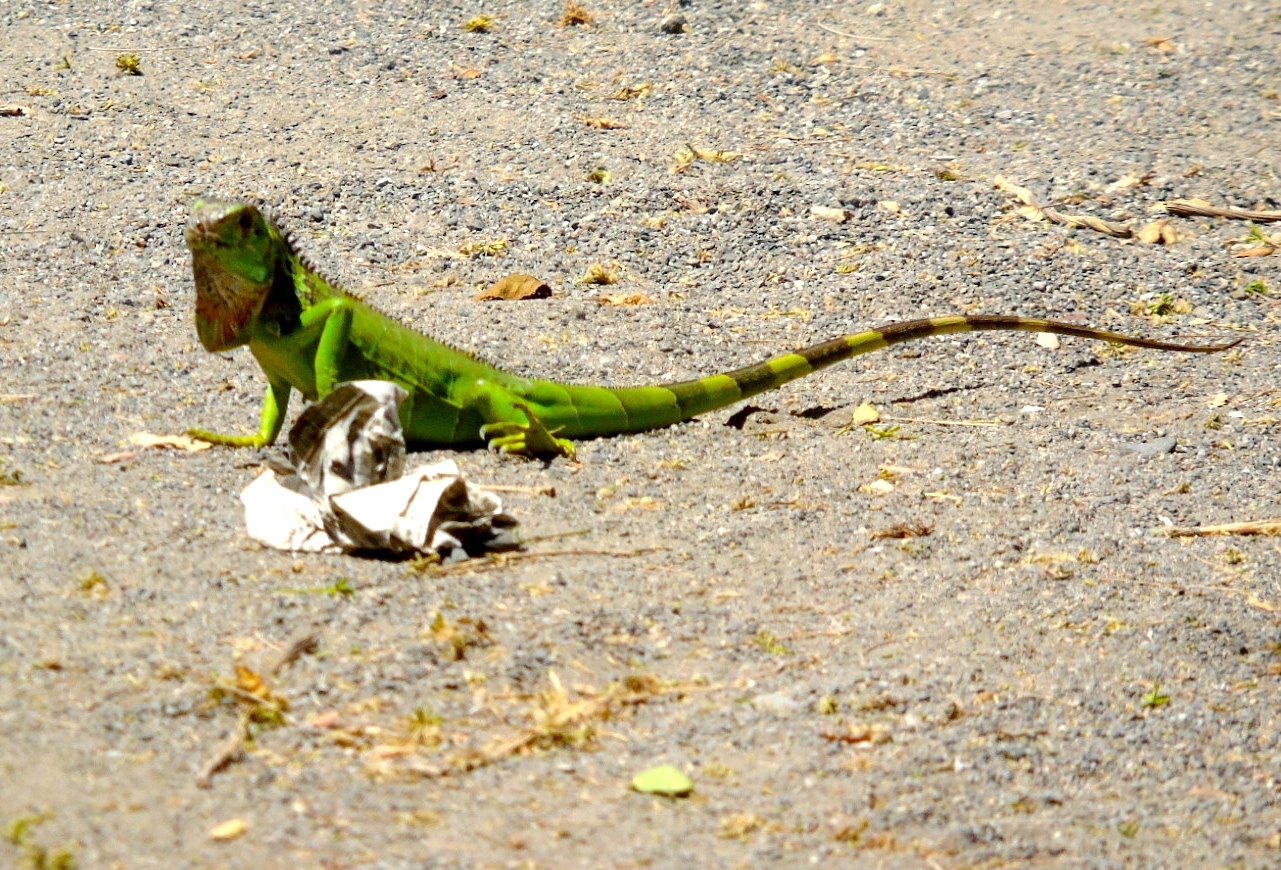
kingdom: Animalia
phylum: Chordata
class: Squamata
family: Iguanidae
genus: Iguana
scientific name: Iguana iguana
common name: Green iguana
